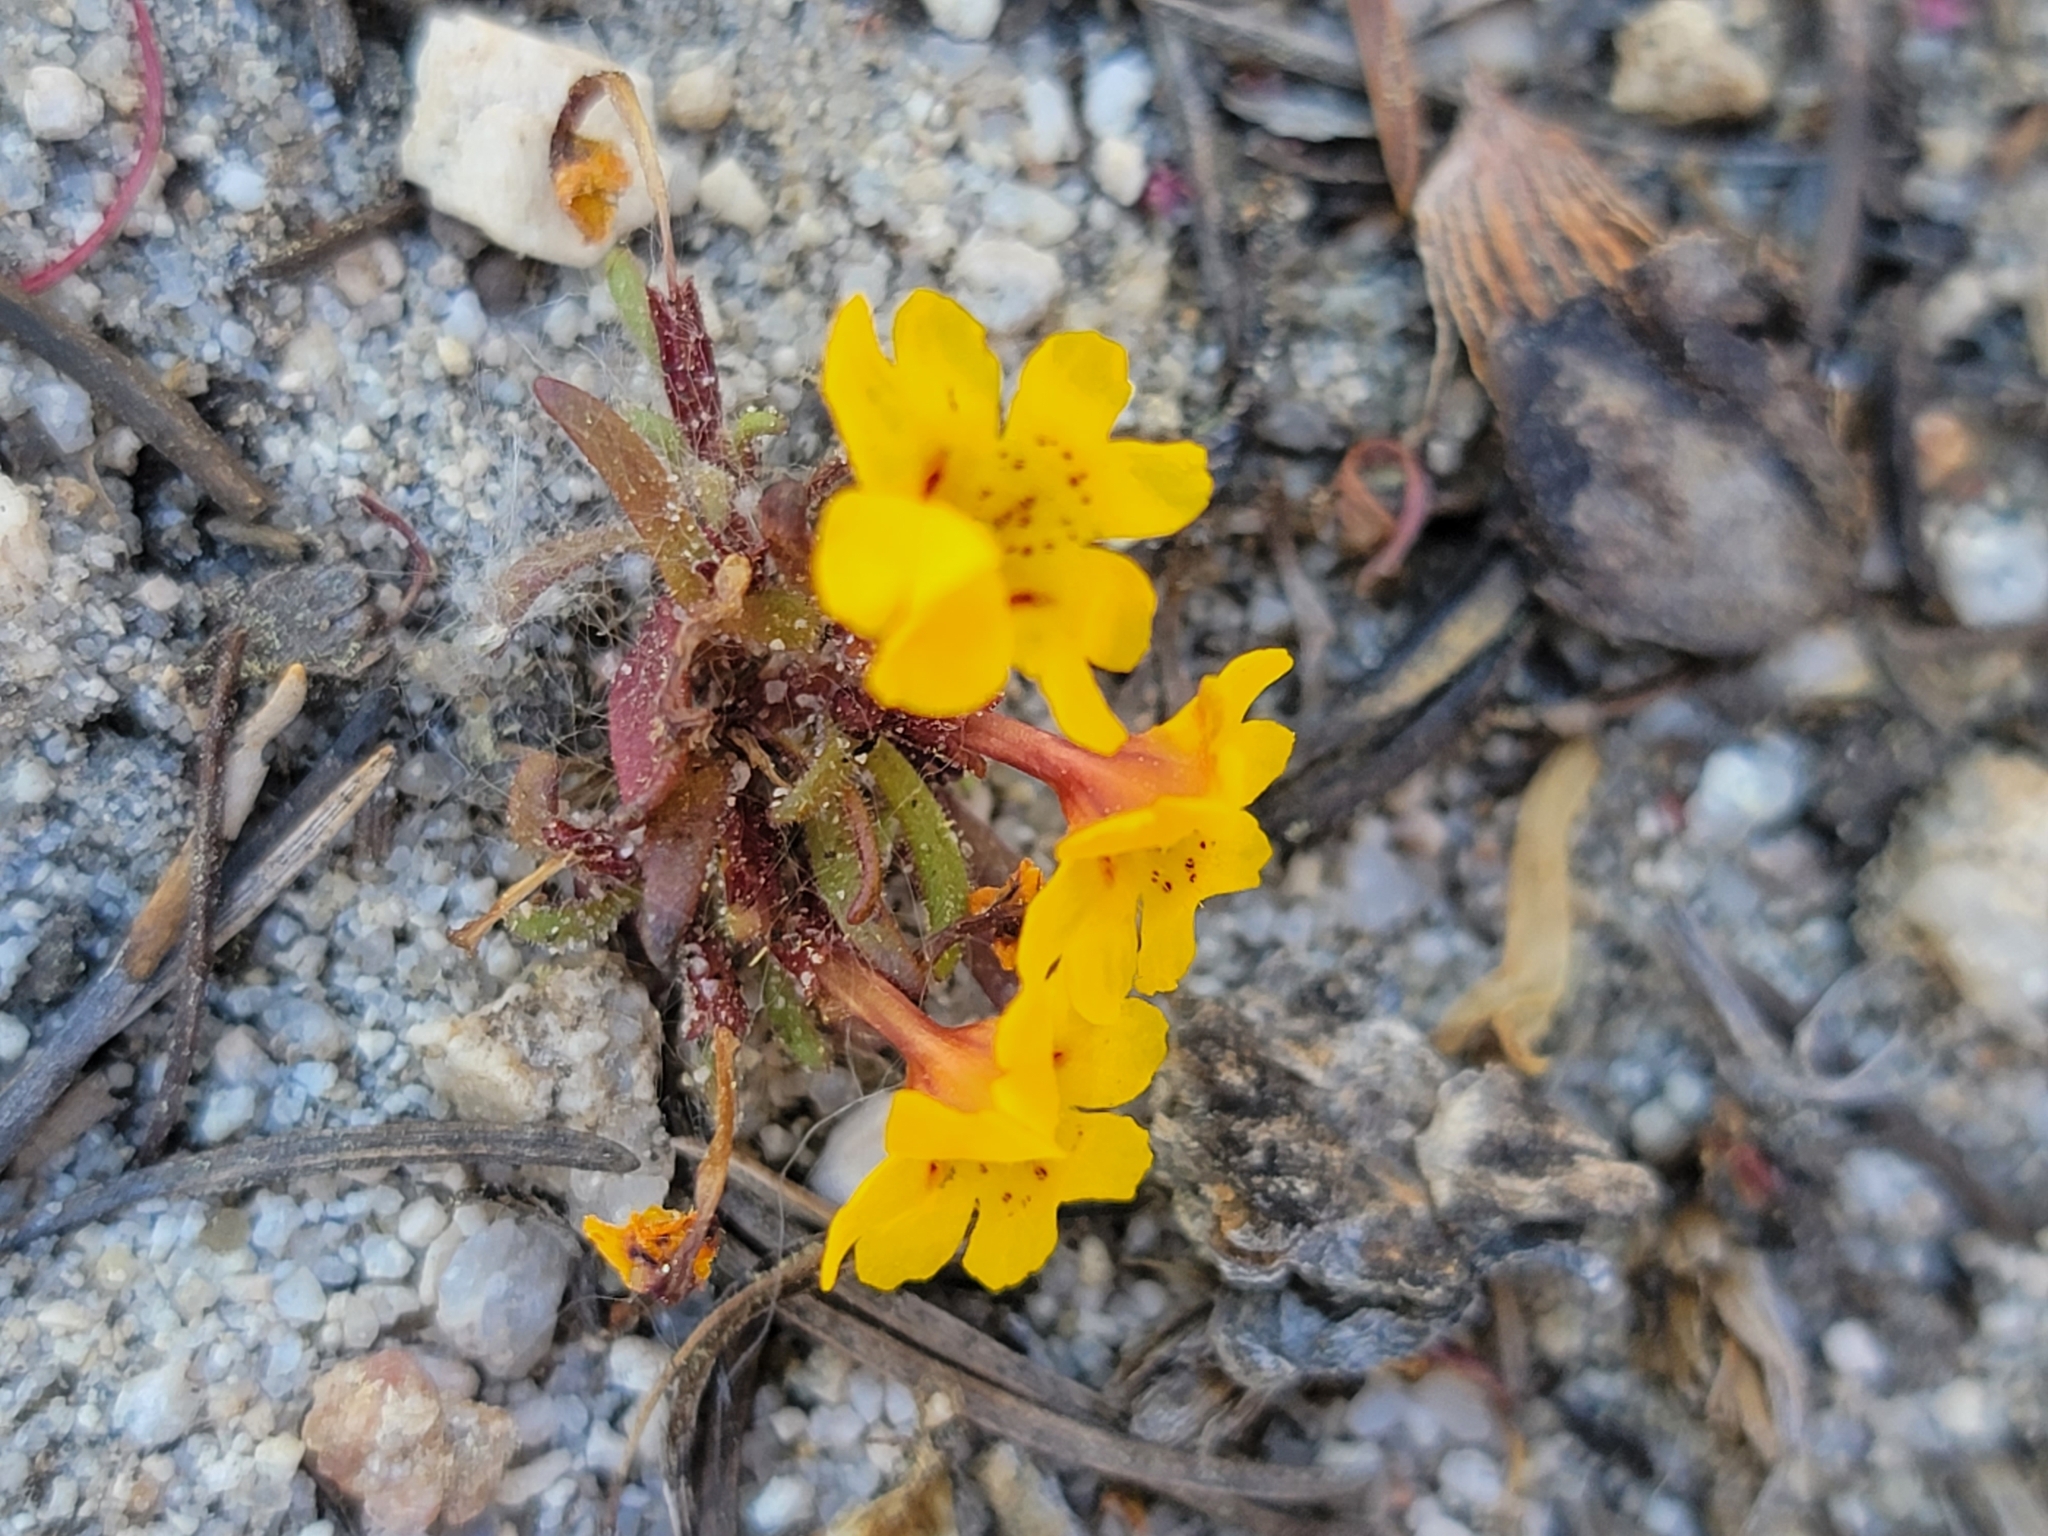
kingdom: Plantae
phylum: Tracheophyta
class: Magnoliopsida
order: Lamiales
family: Phrymaceae
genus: Erythranthe
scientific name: Erythranthe barbata
